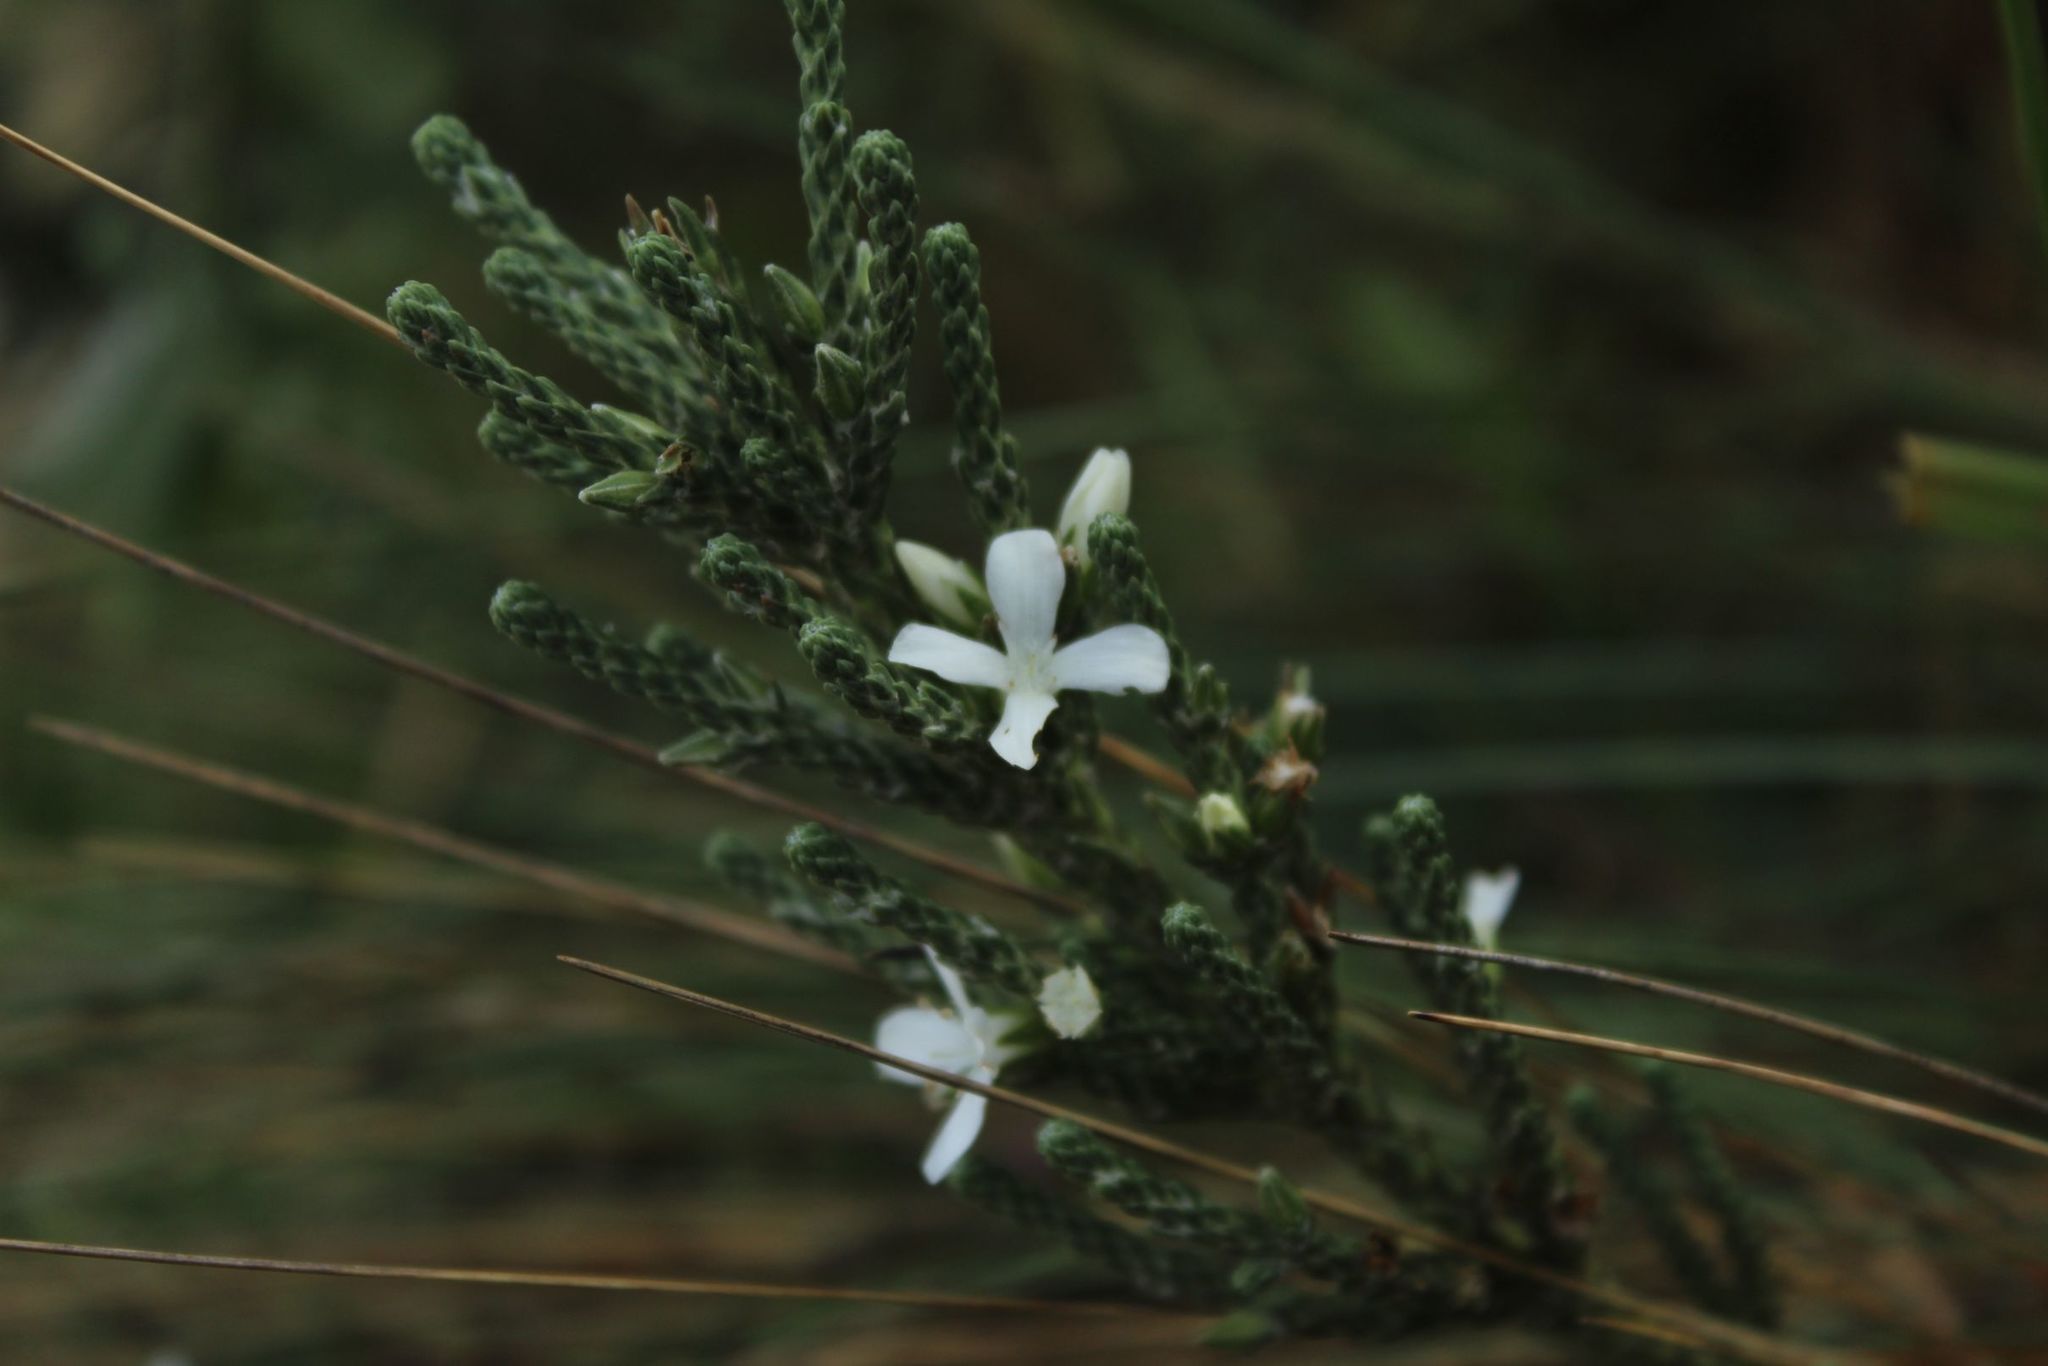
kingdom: Plantae
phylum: Tracheophyta
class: Magnoliopsida
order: Lamiales
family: Plantaginaceae
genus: Aragoa
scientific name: Aragoa cupressina
